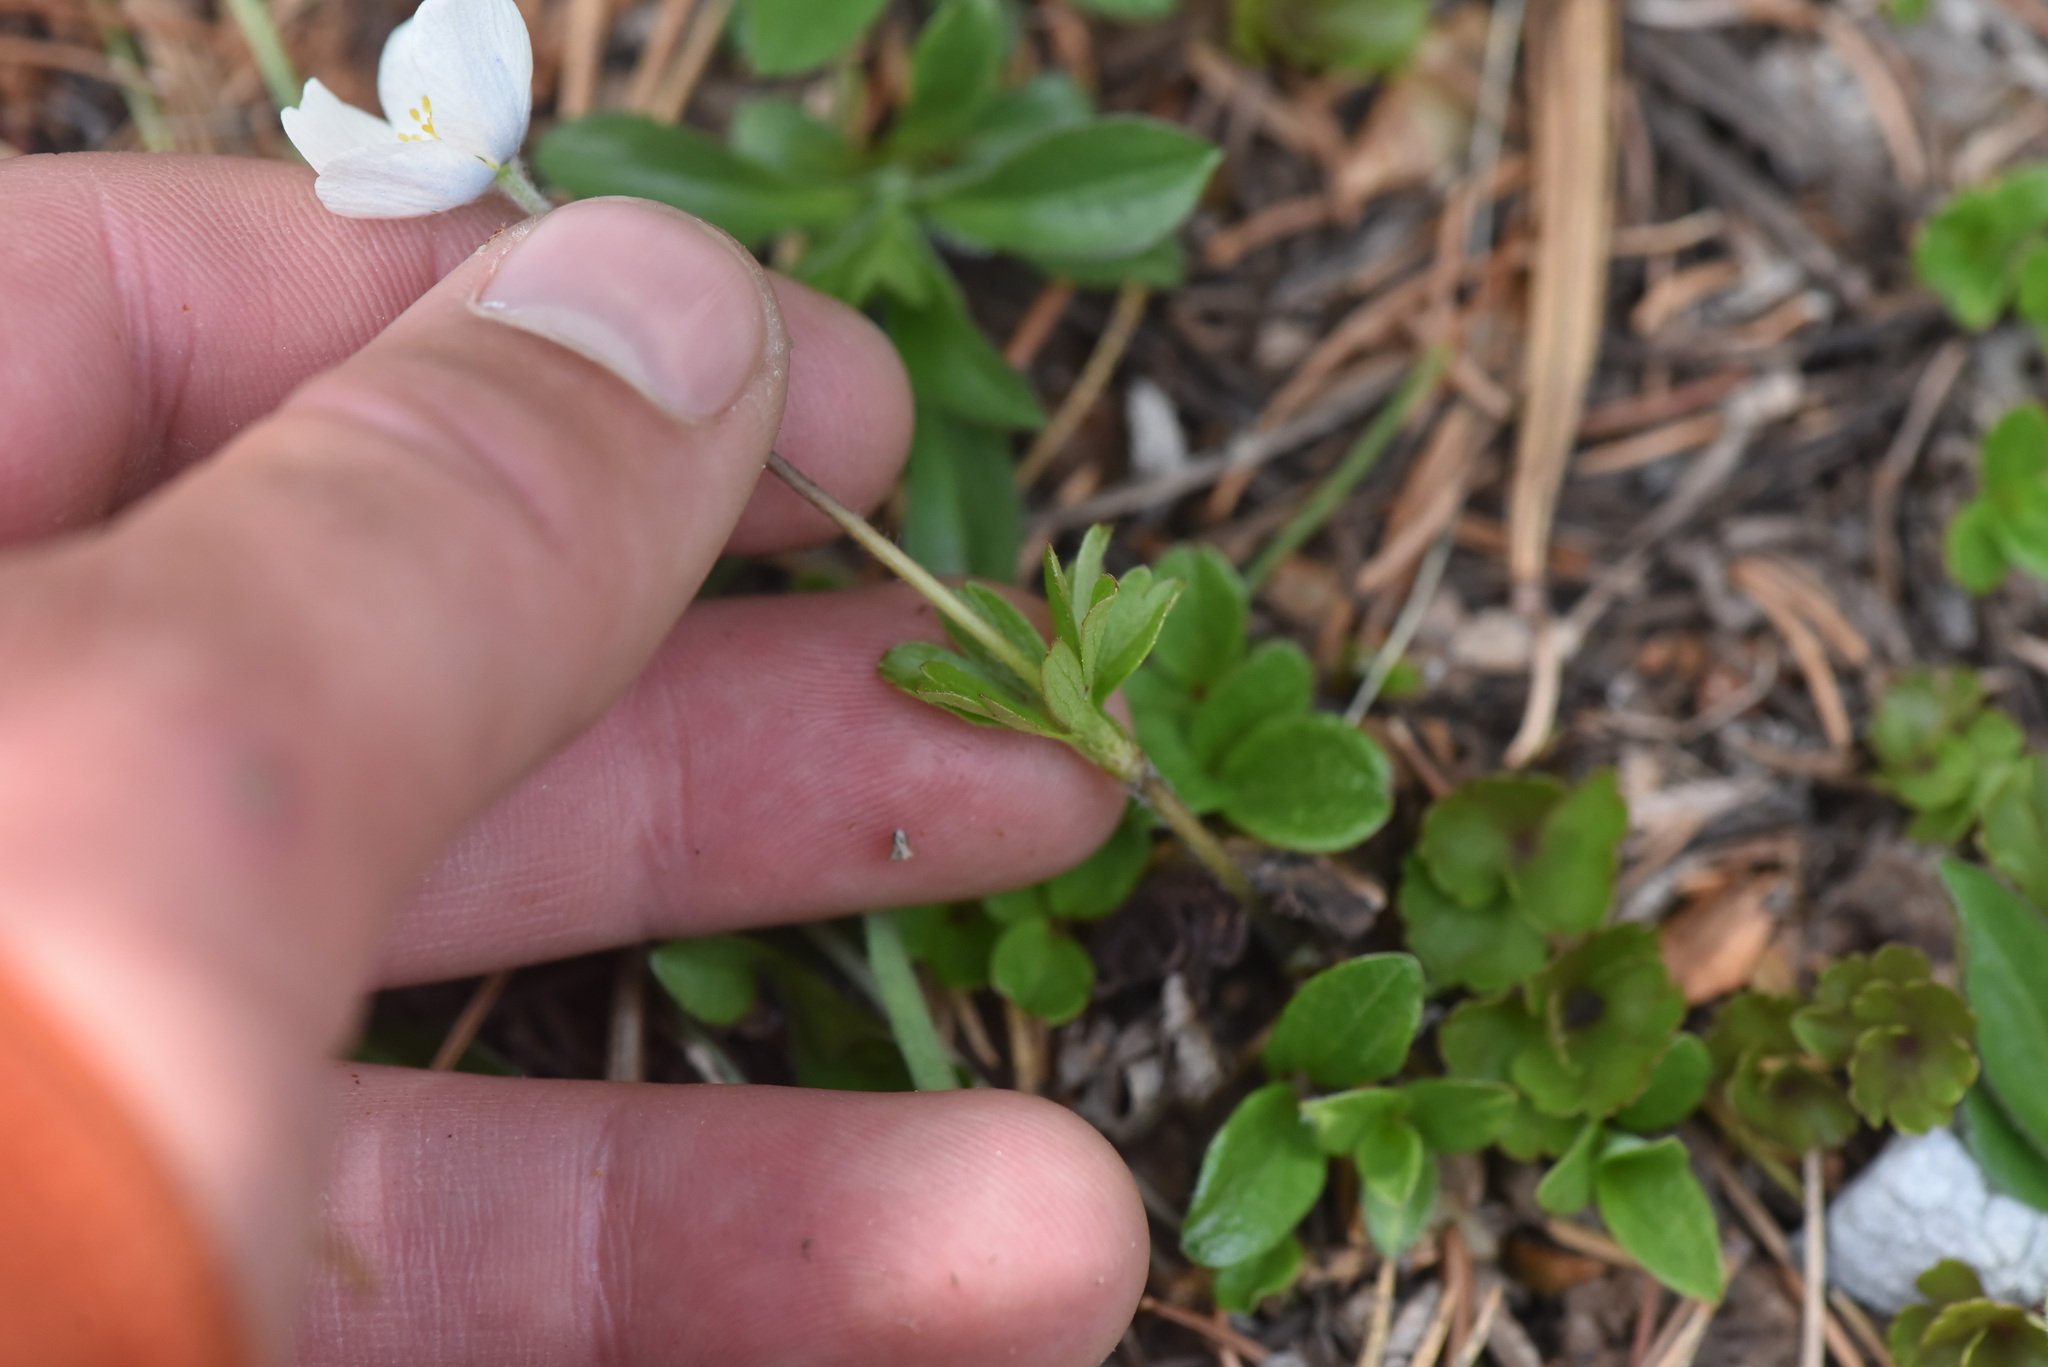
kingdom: Plantae
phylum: Tracheophyta
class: Magnoliopsida
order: Ranunculales
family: Ranunculaceae
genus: Anemone
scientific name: Anemone parviflora
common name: Northern anemone
